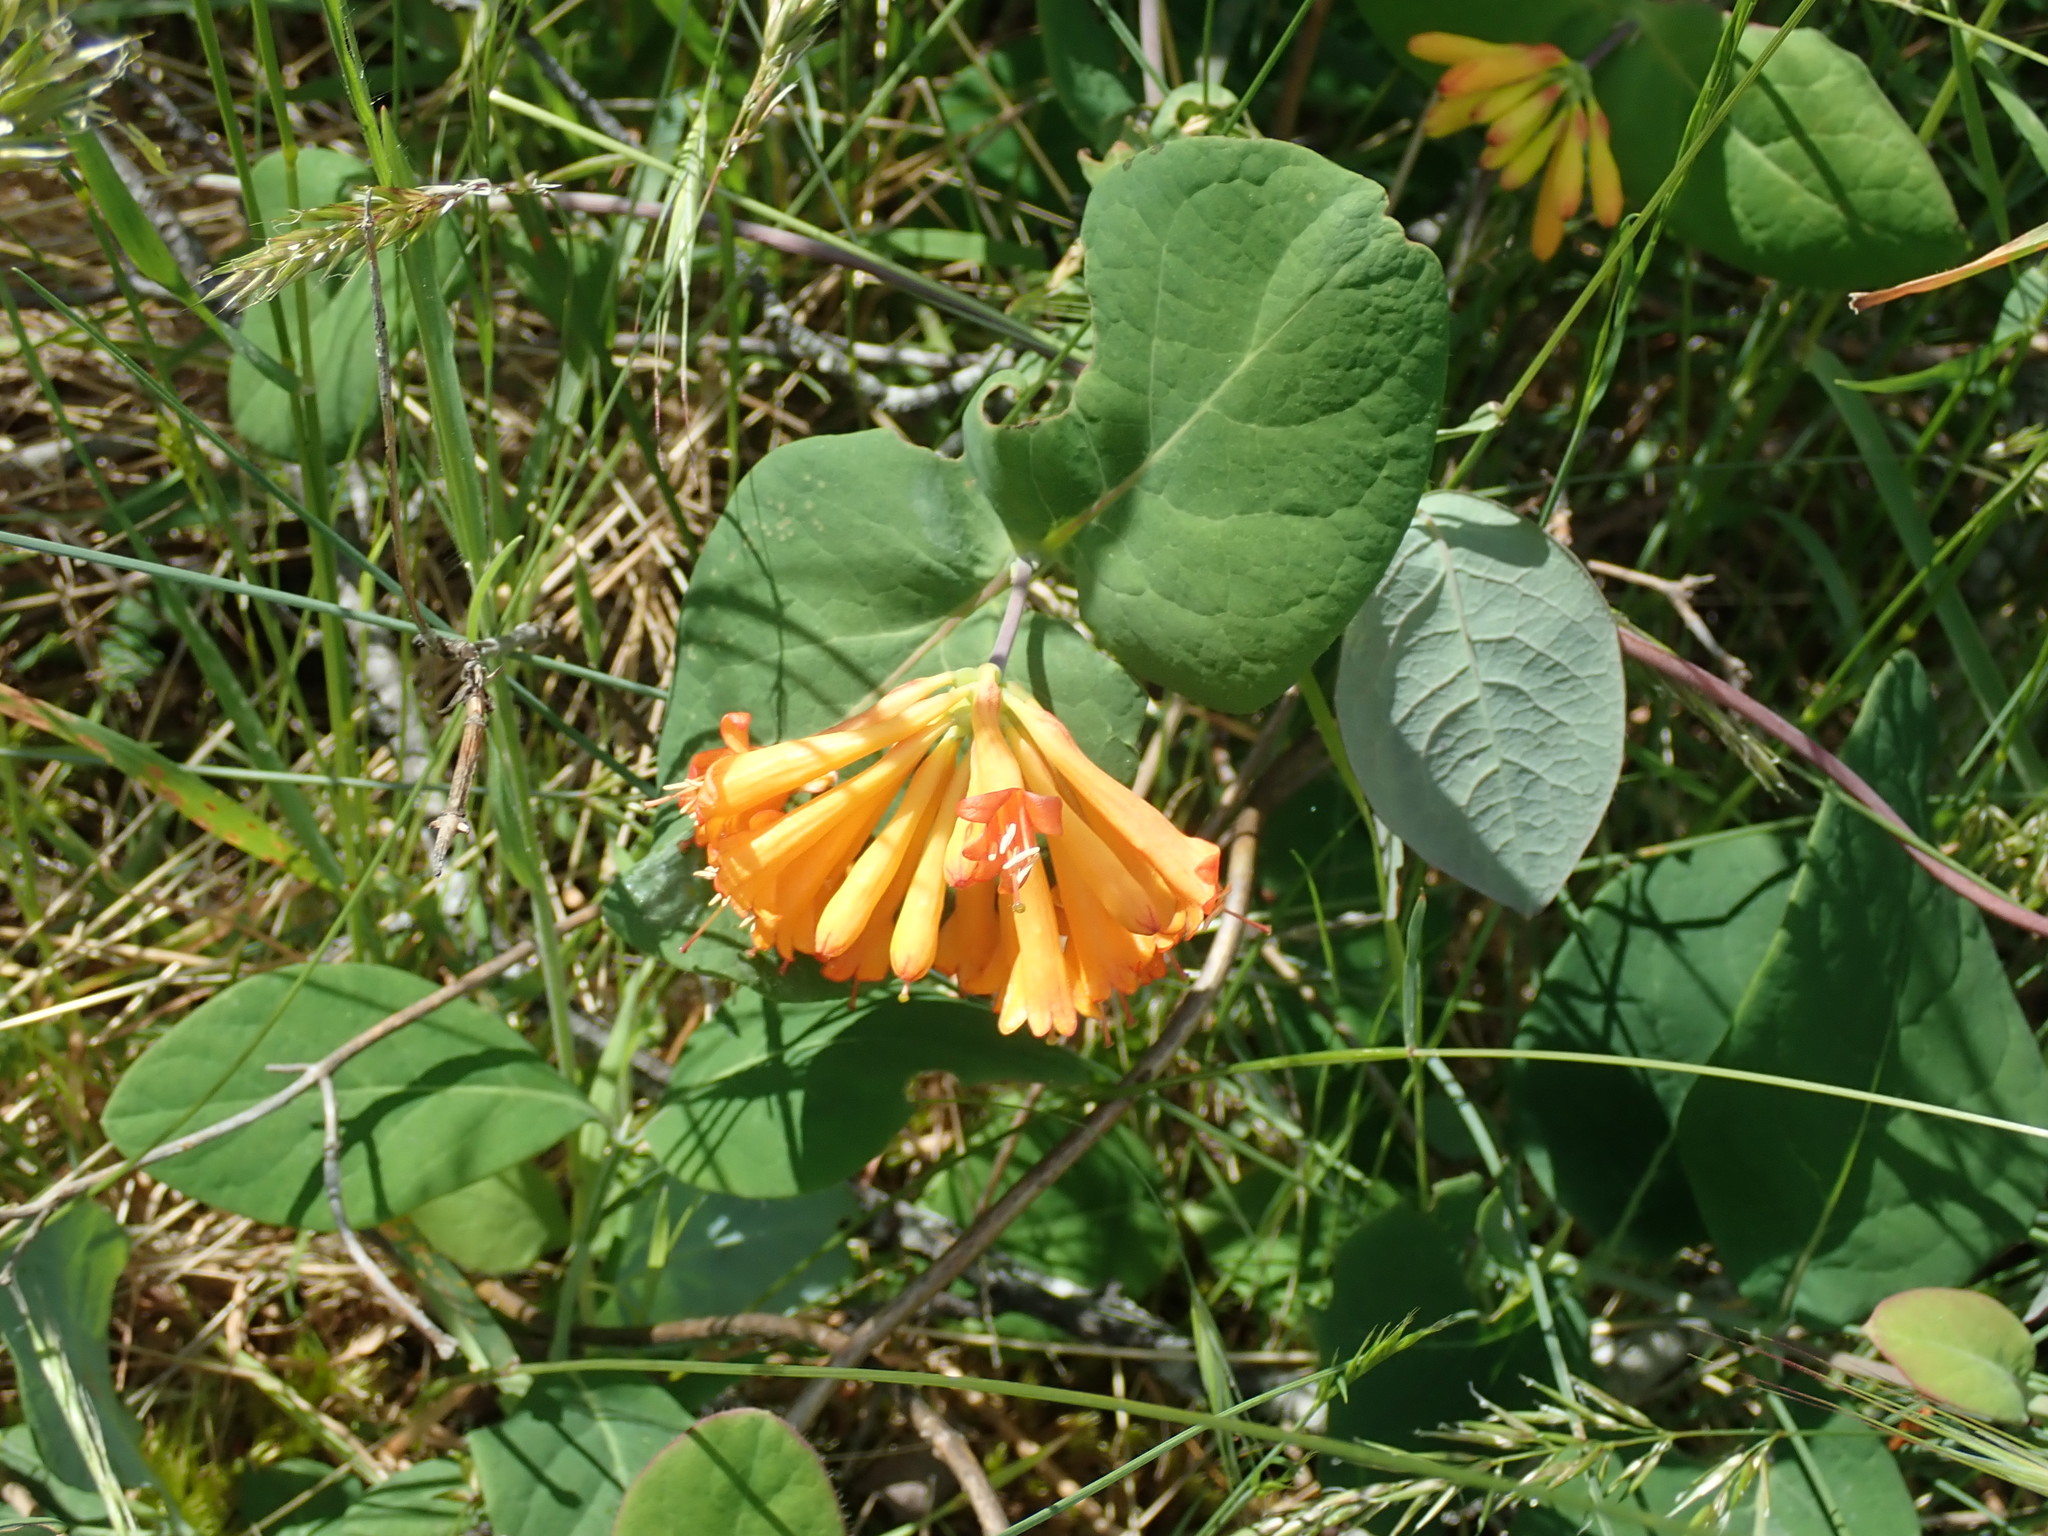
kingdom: Plantae
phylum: Tracheophyta
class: Magnoliopsida
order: Dipsacales
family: Caprifoliaceae
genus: Lonicera
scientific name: Lonicera ciliosa
